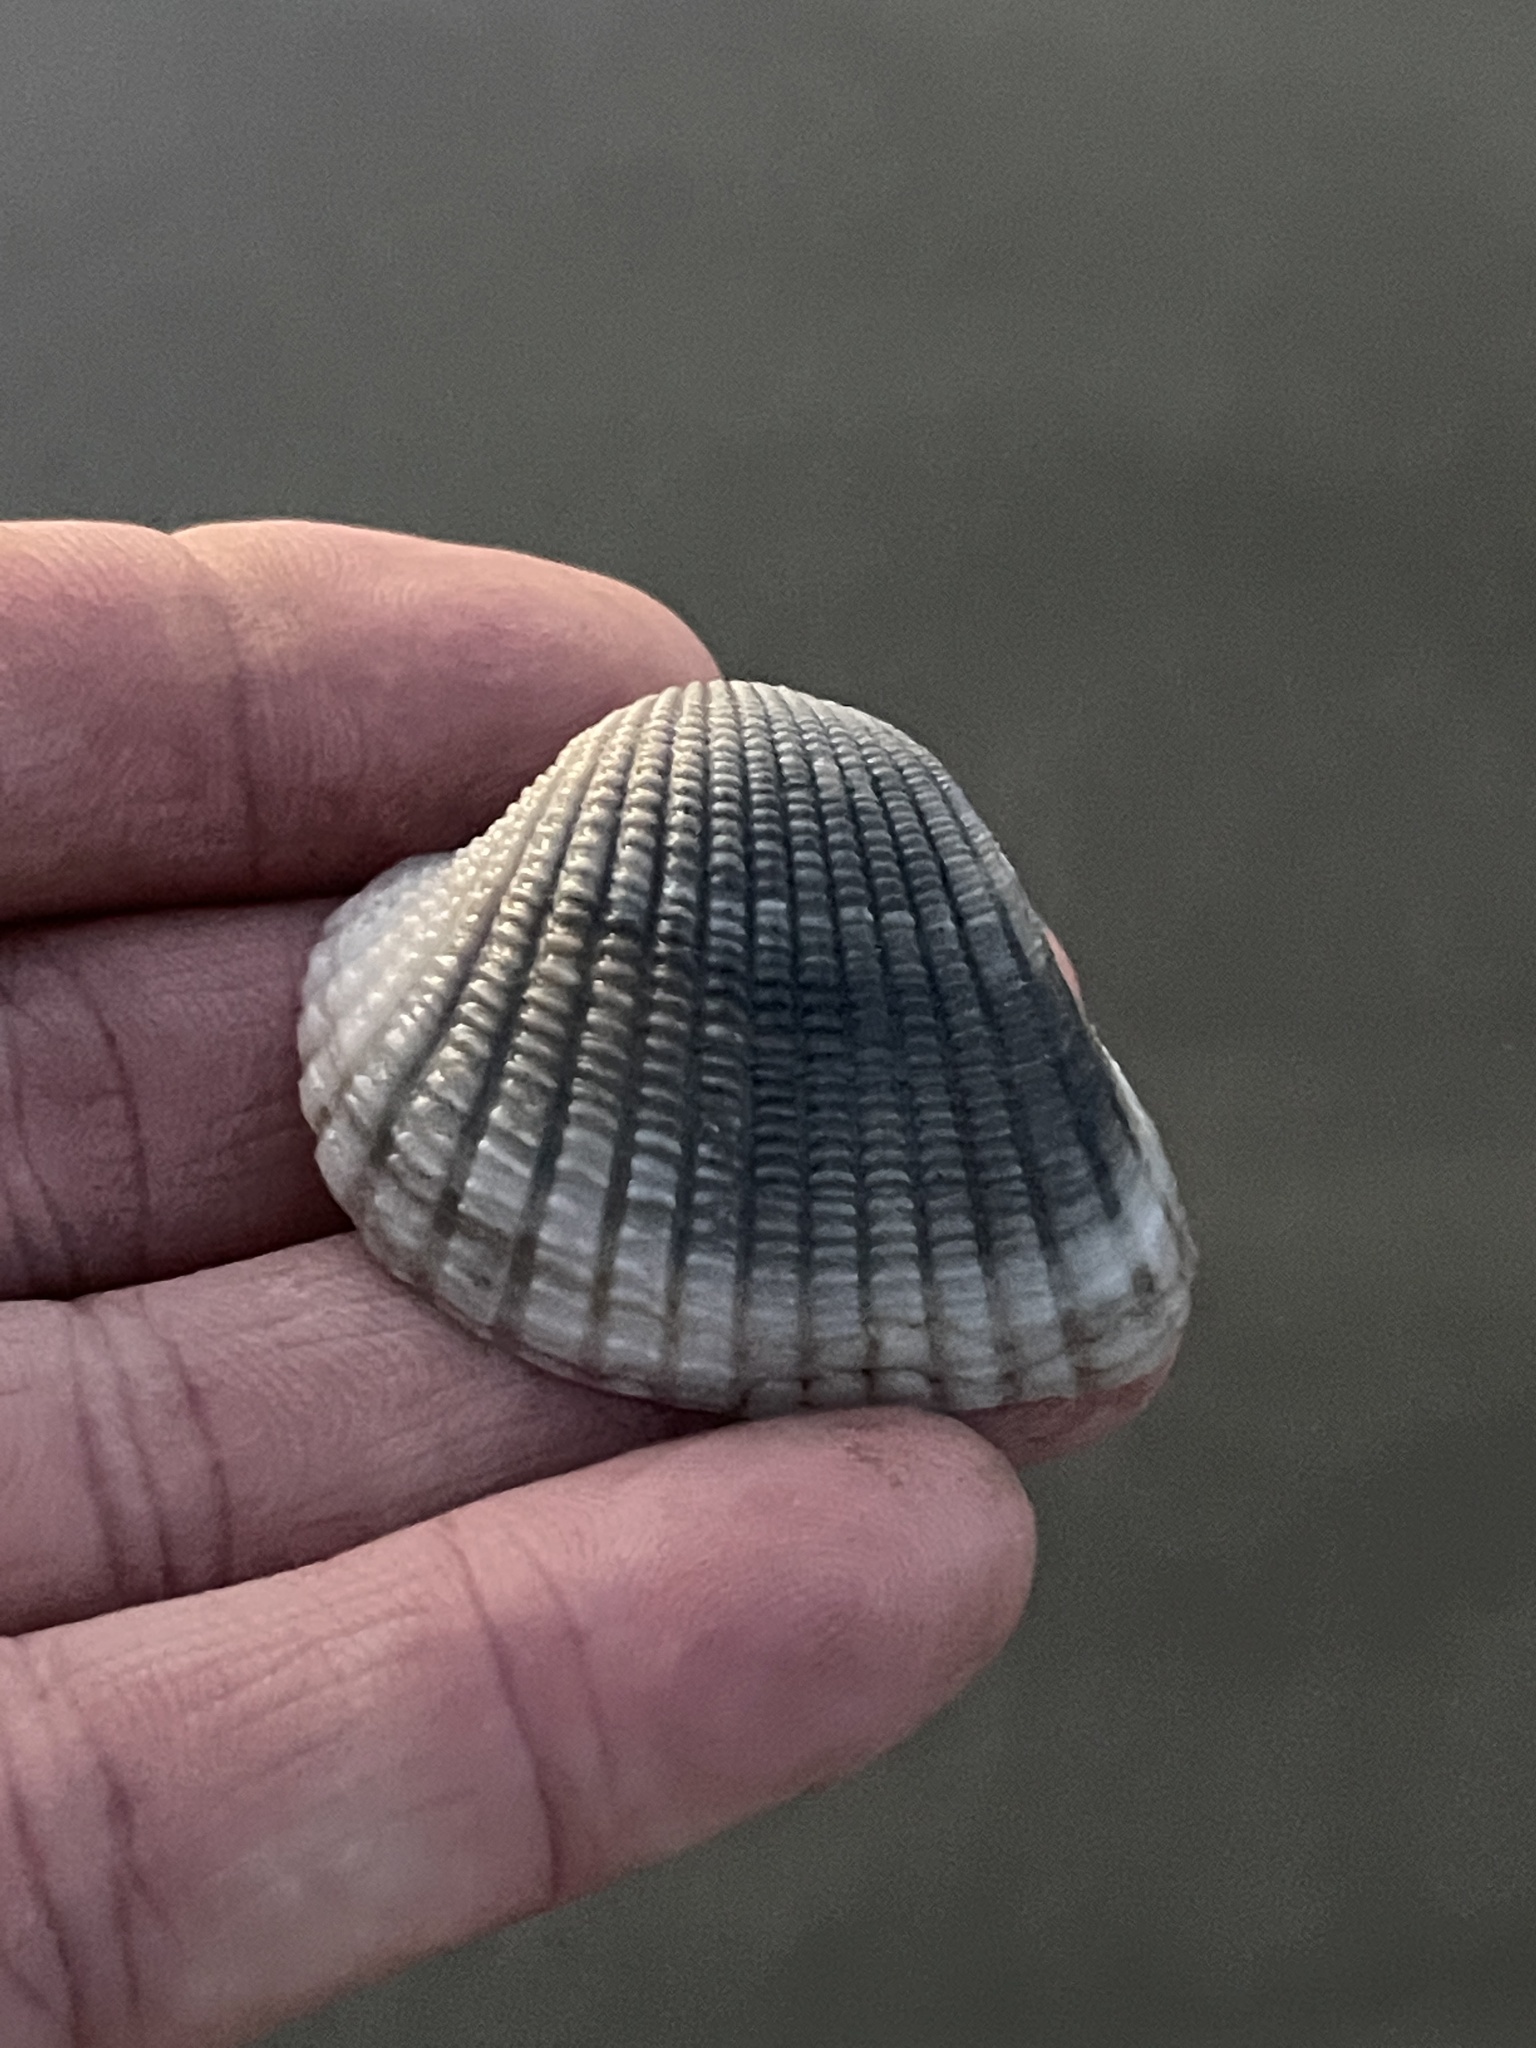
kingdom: Animalia
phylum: Mollusca
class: Bivalvia
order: Arcida
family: Arcidae
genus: Anadara
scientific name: Anadara brasiliana
